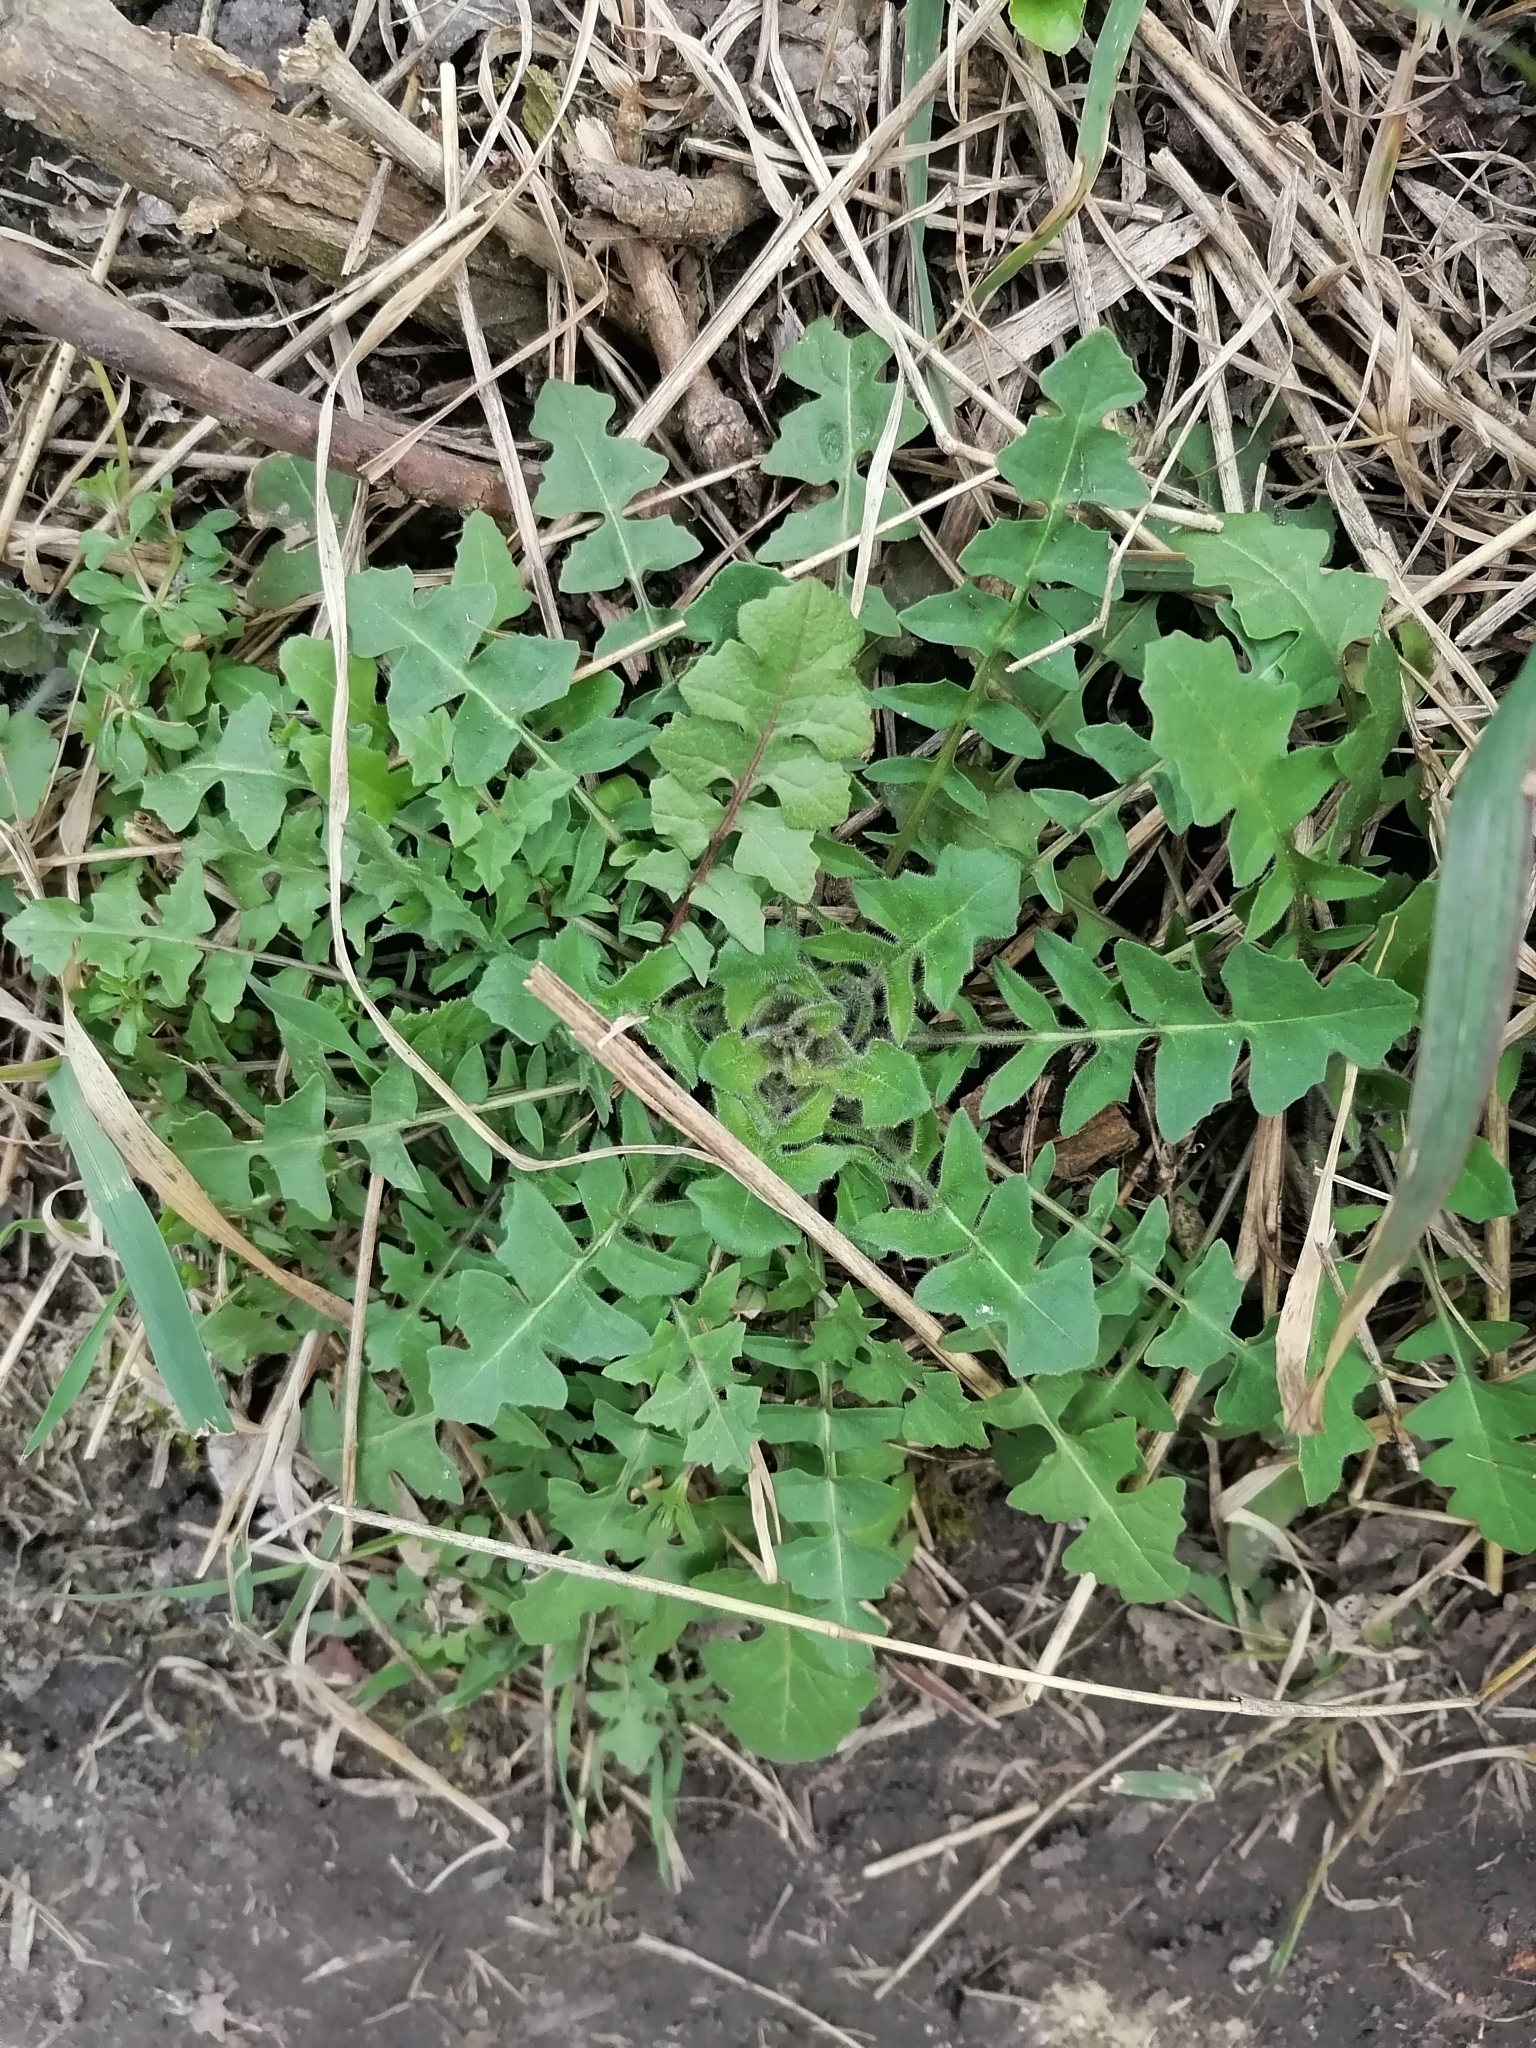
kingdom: Plantae
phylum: Tracheophyta
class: Magnoliopsida
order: Brassicales
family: Brassicaceae
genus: Capsella
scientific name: Capsella bursa-pastoris
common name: Shepherd's purse
